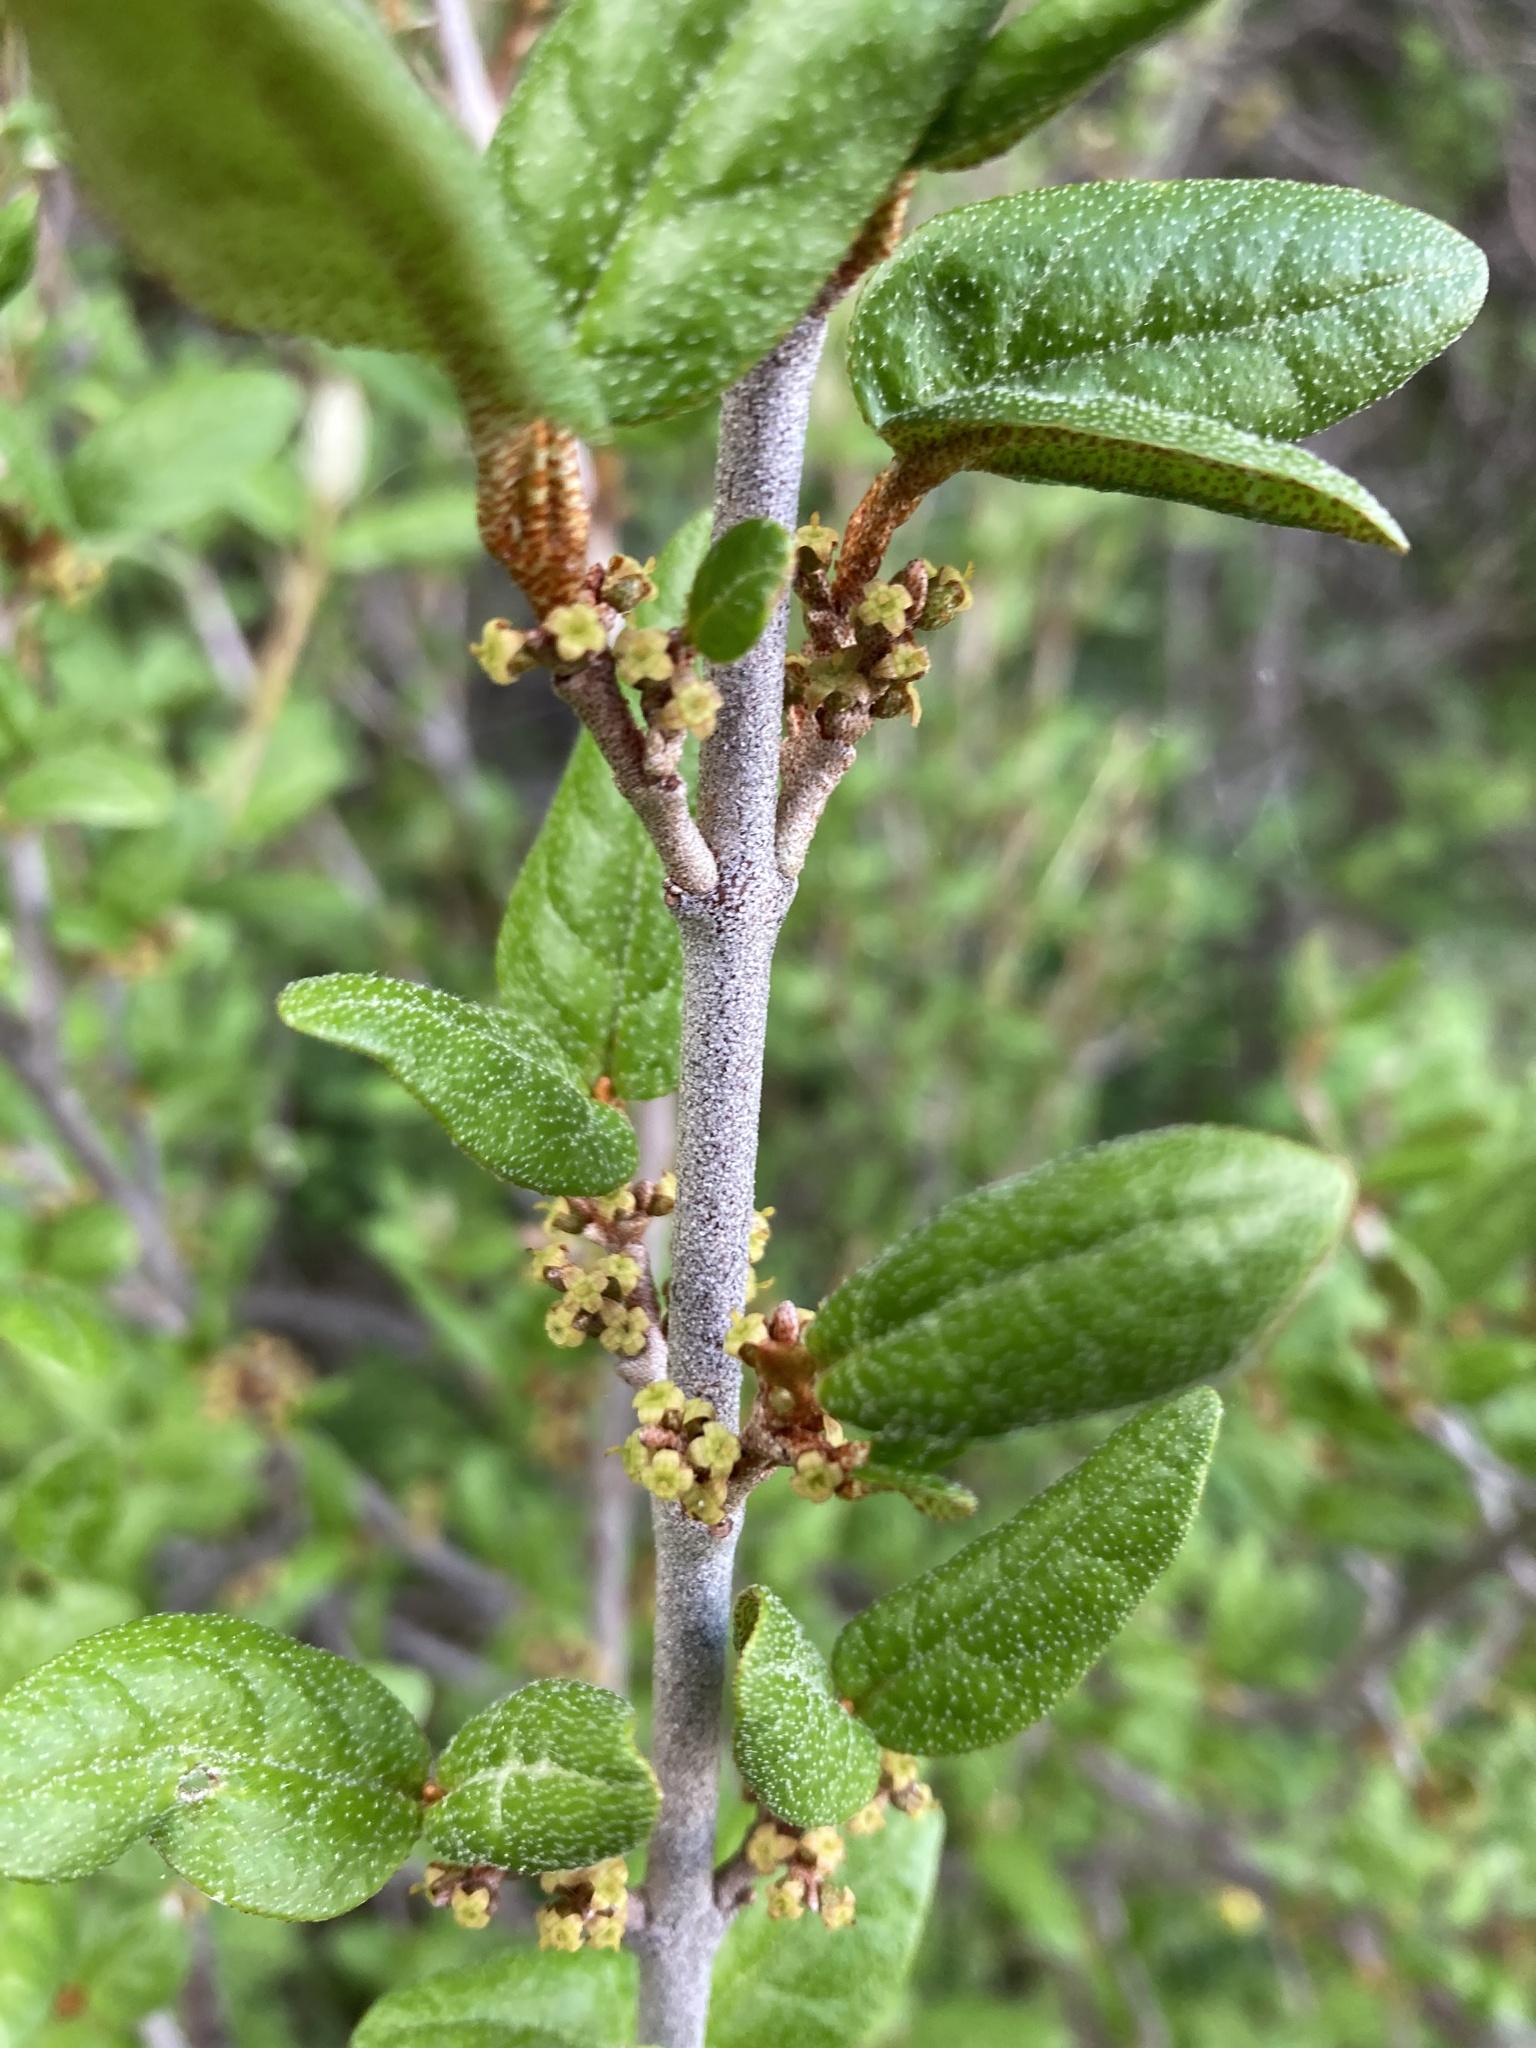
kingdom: Plantae
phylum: Tracheophyta
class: Magnoliopsida
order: Rosales
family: Elaeagnaceae
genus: Shepherdia
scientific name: Shepherdia canadensis
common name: Soapberry
